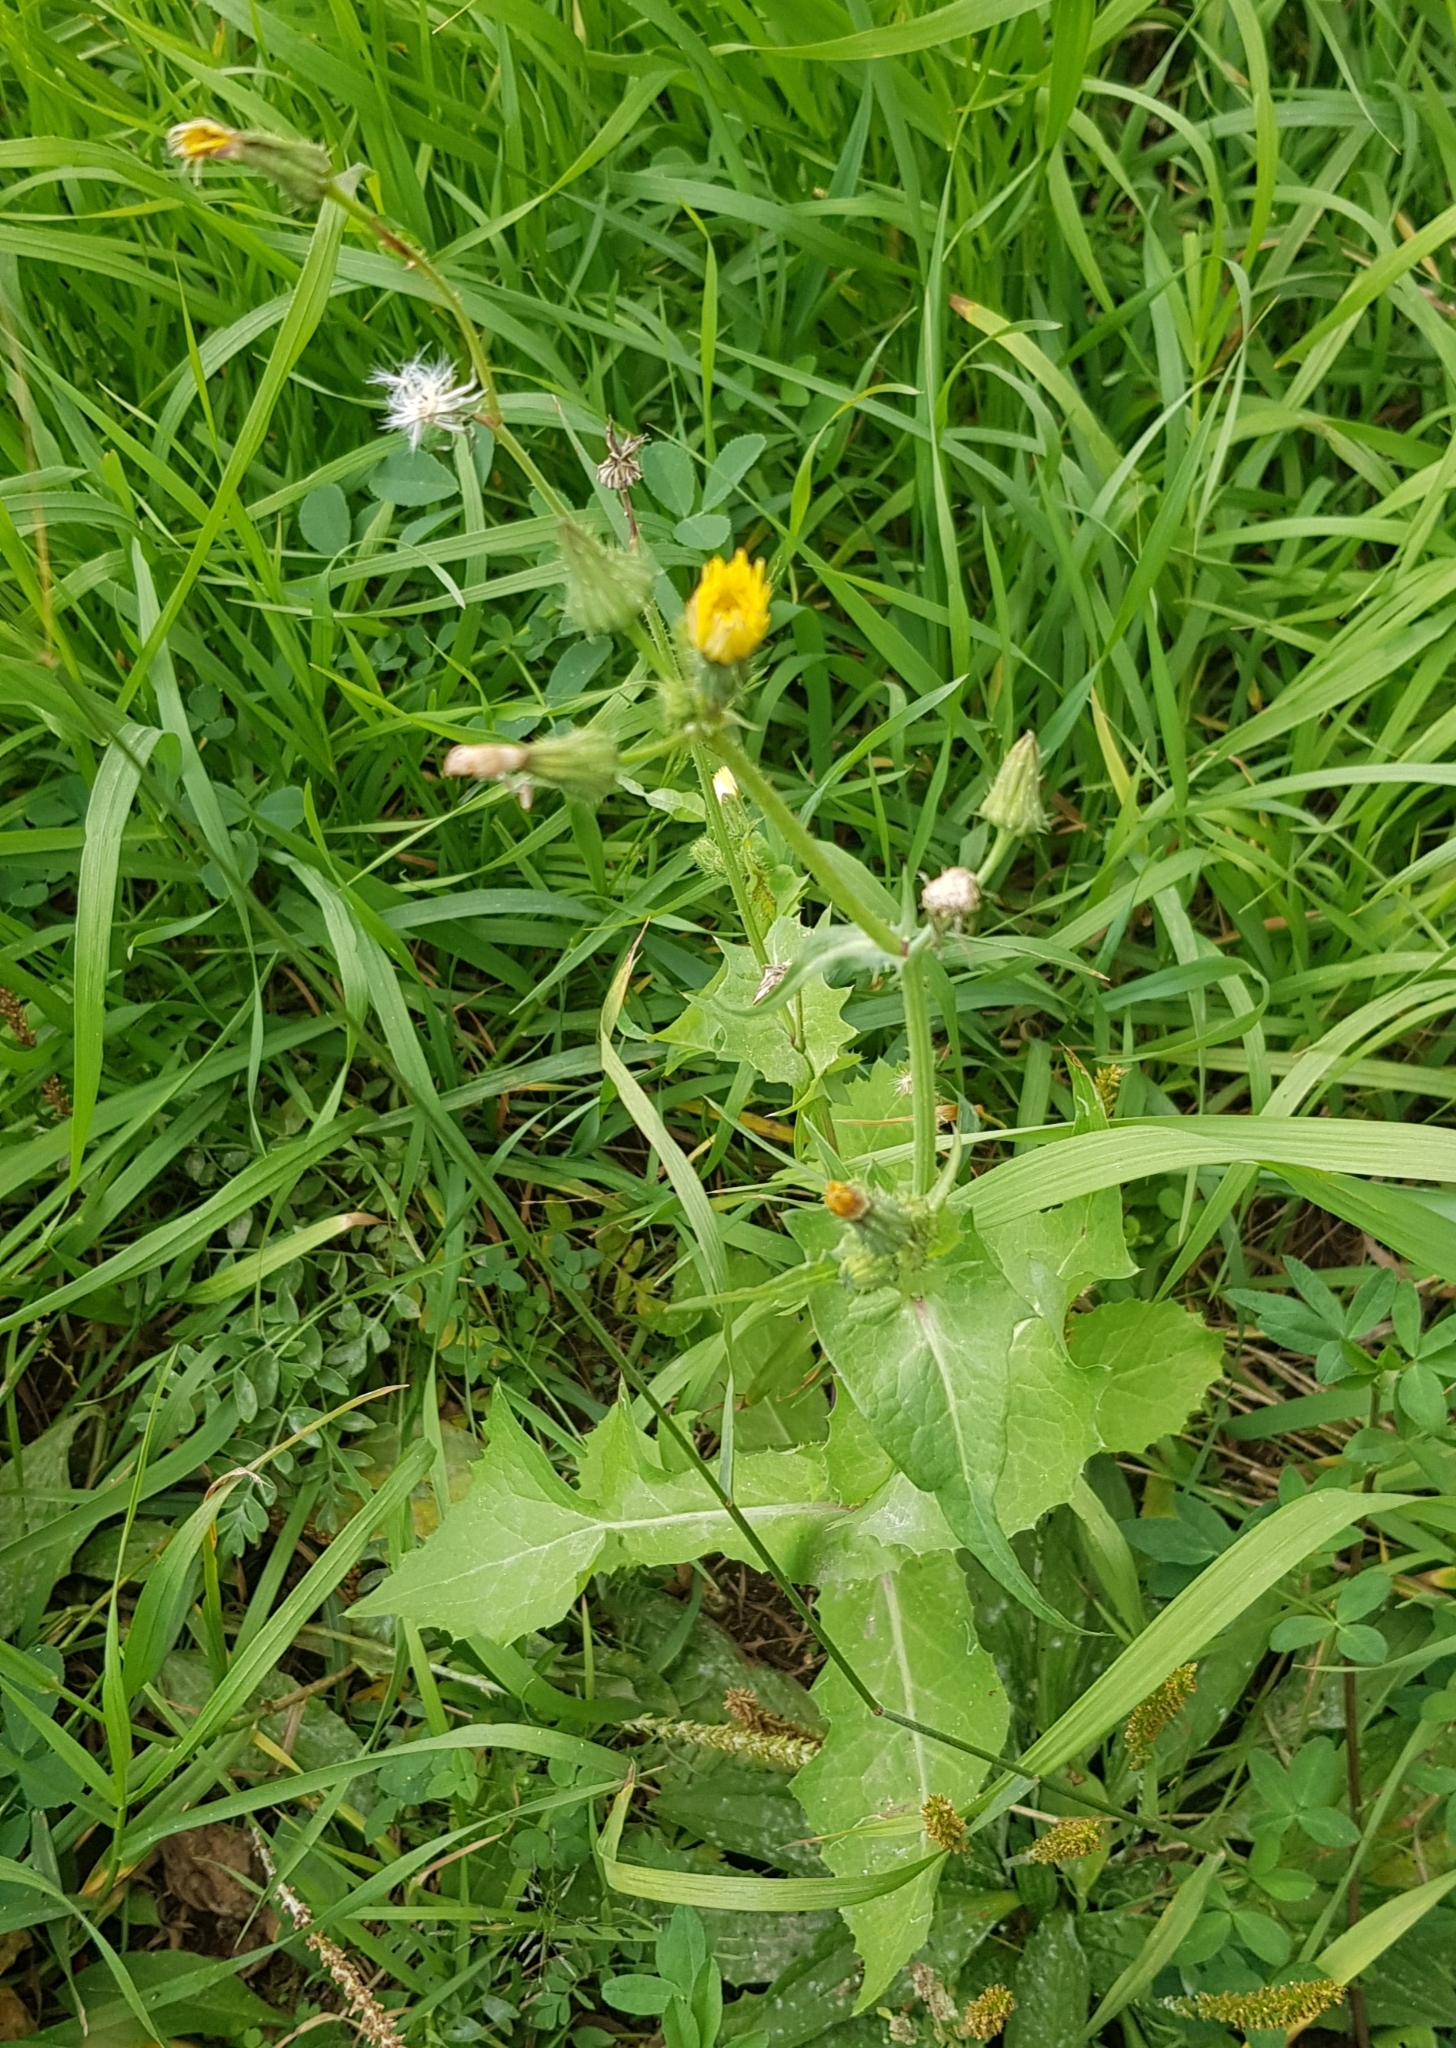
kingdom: Plantae
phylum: Tracheophyta
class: Magnoliopsida
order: Asterales
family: Asteraceae
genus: Sonchus
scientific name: Sonchus oleraceus
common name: Common sowthistle
